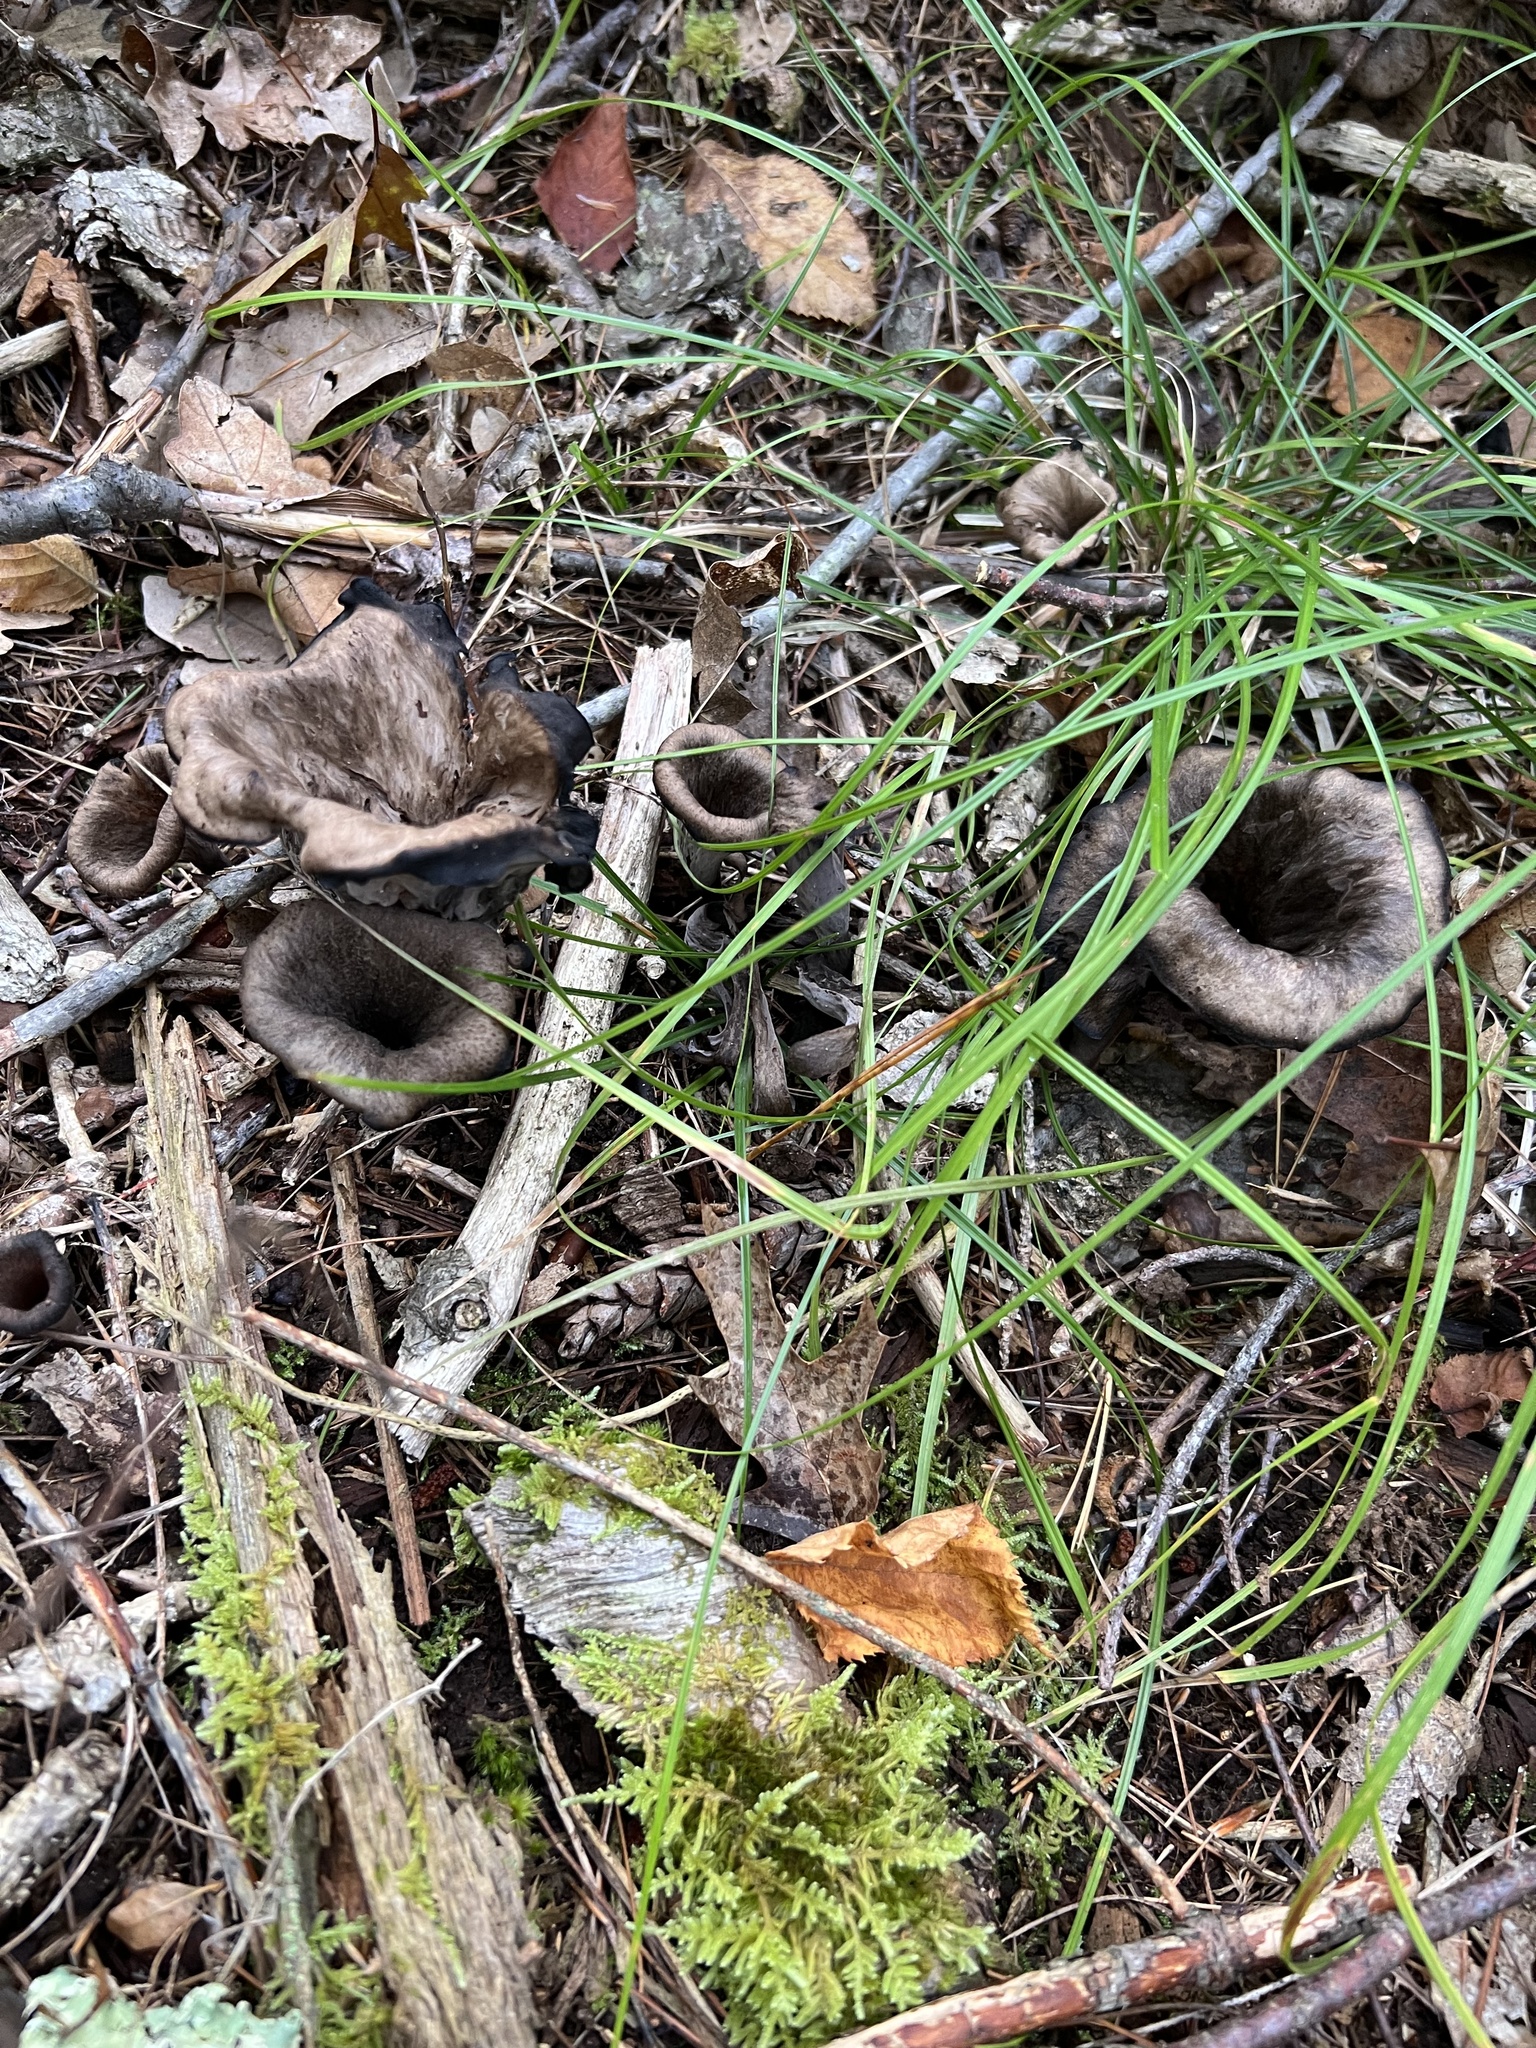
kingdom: Fungi
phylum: Basidiomycota
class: Agaricomycetes
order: Cantharellales
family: Hydnaceae
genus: Craterellus
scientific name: Craterellus cornucopioides
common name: Horn of plenty
